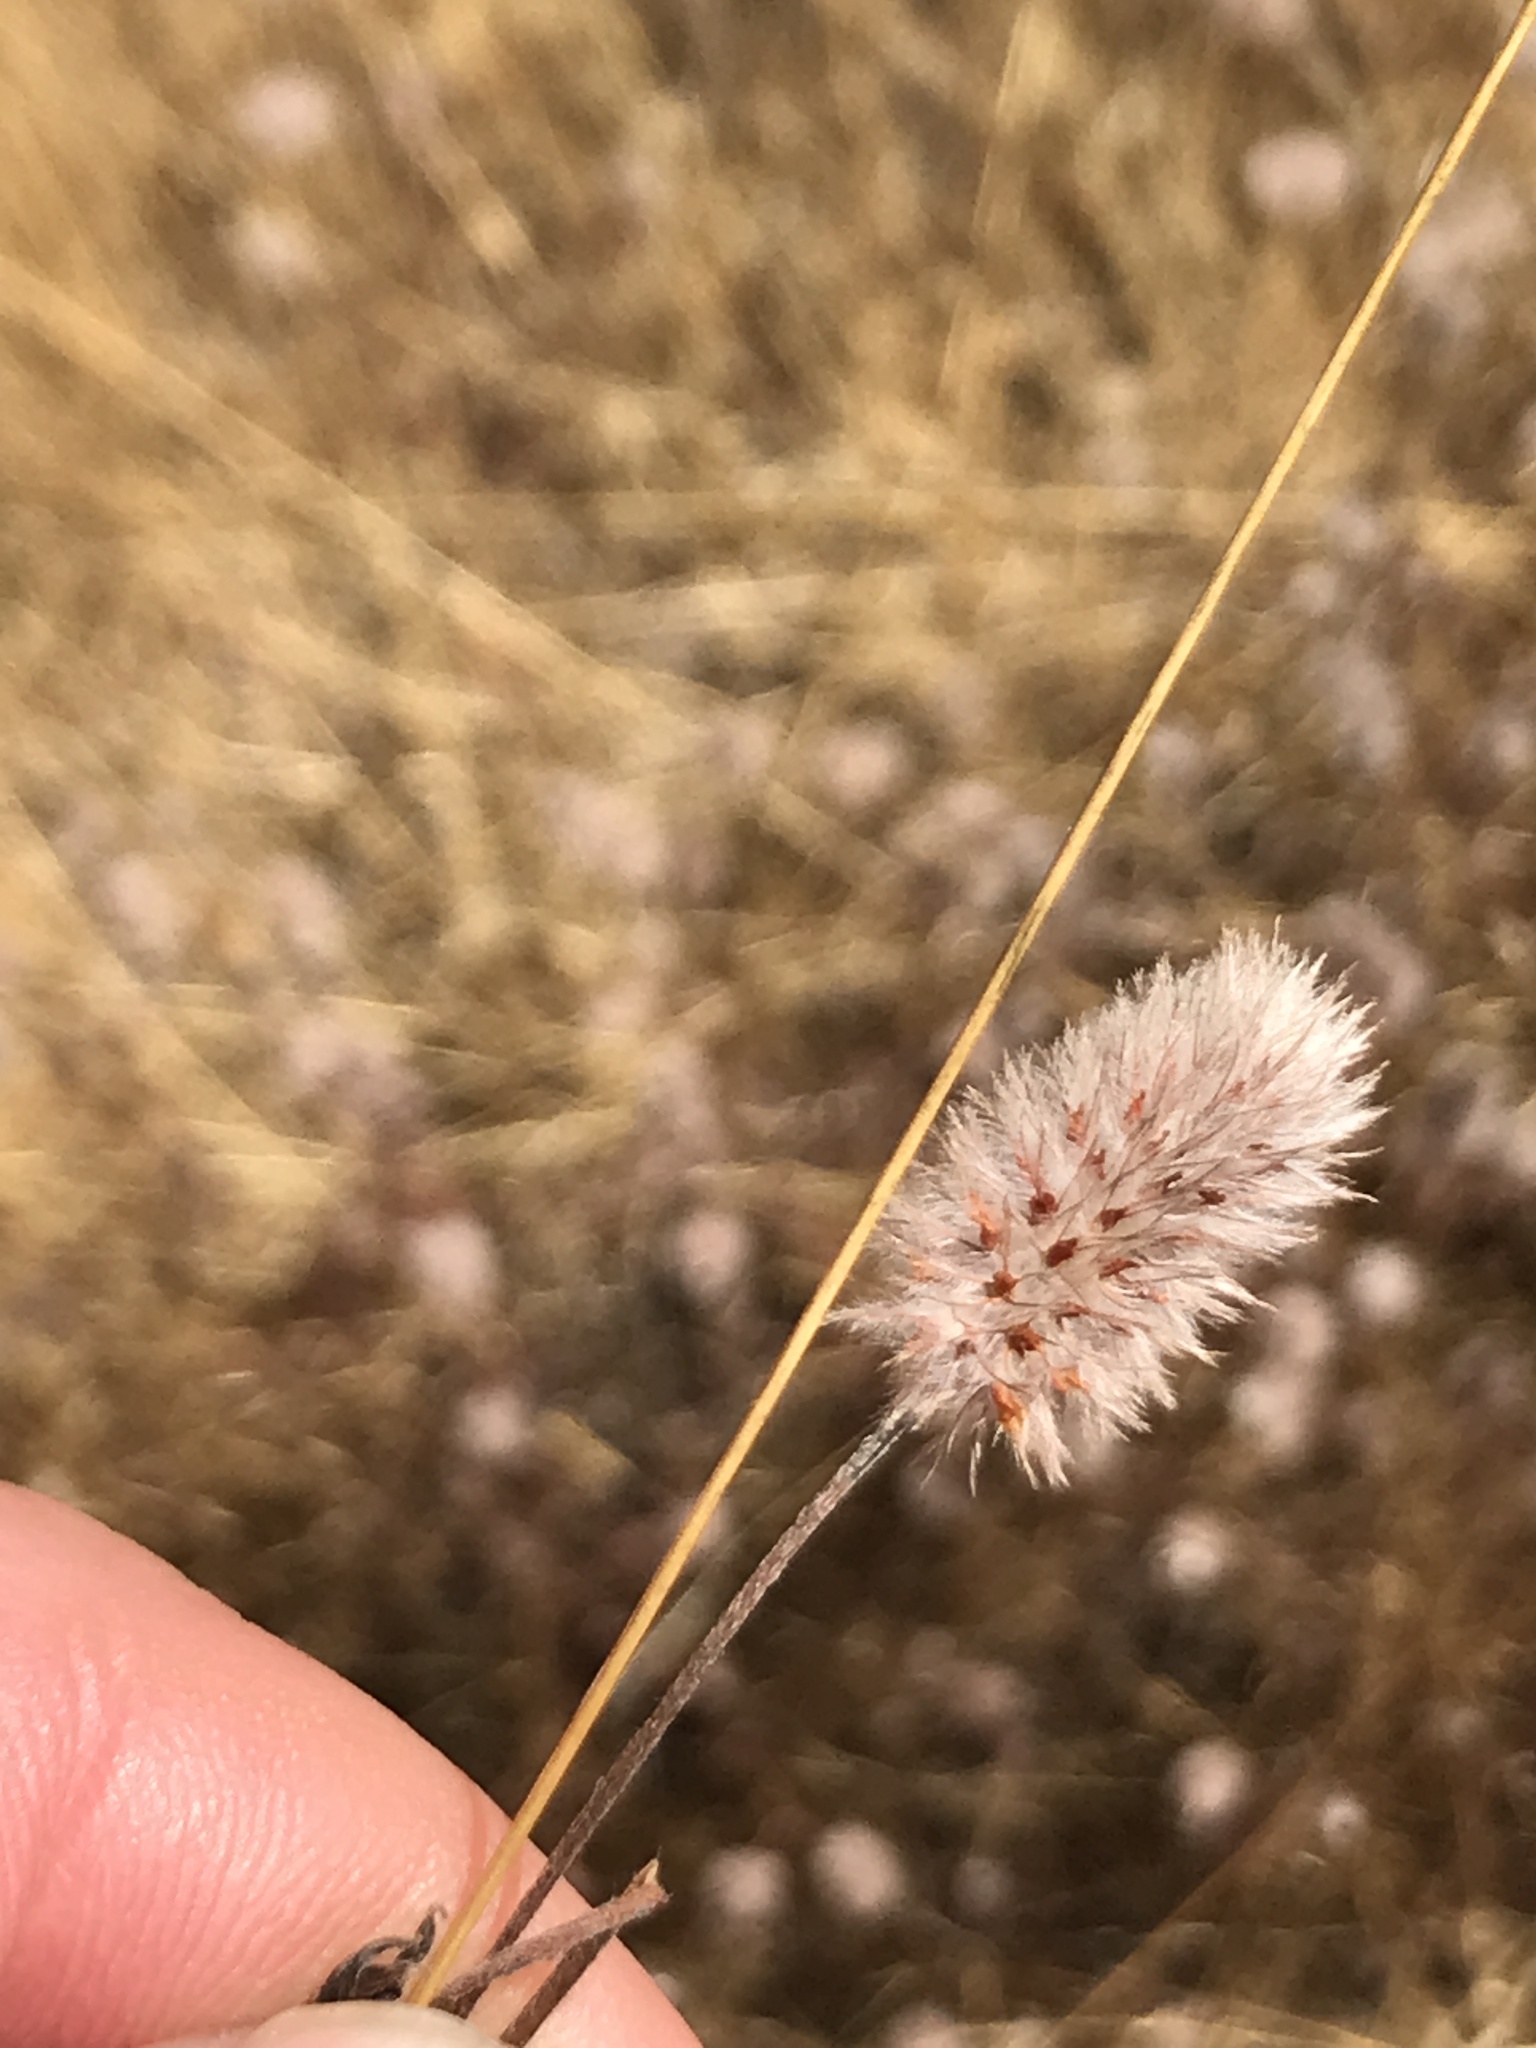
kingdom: Plantae
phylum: Tracheophyta
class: Magnoliopsida
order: Fabales
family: Fabaceae
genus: Trifolium
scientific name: Trifolium arvense
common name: Hare's-foot clover
